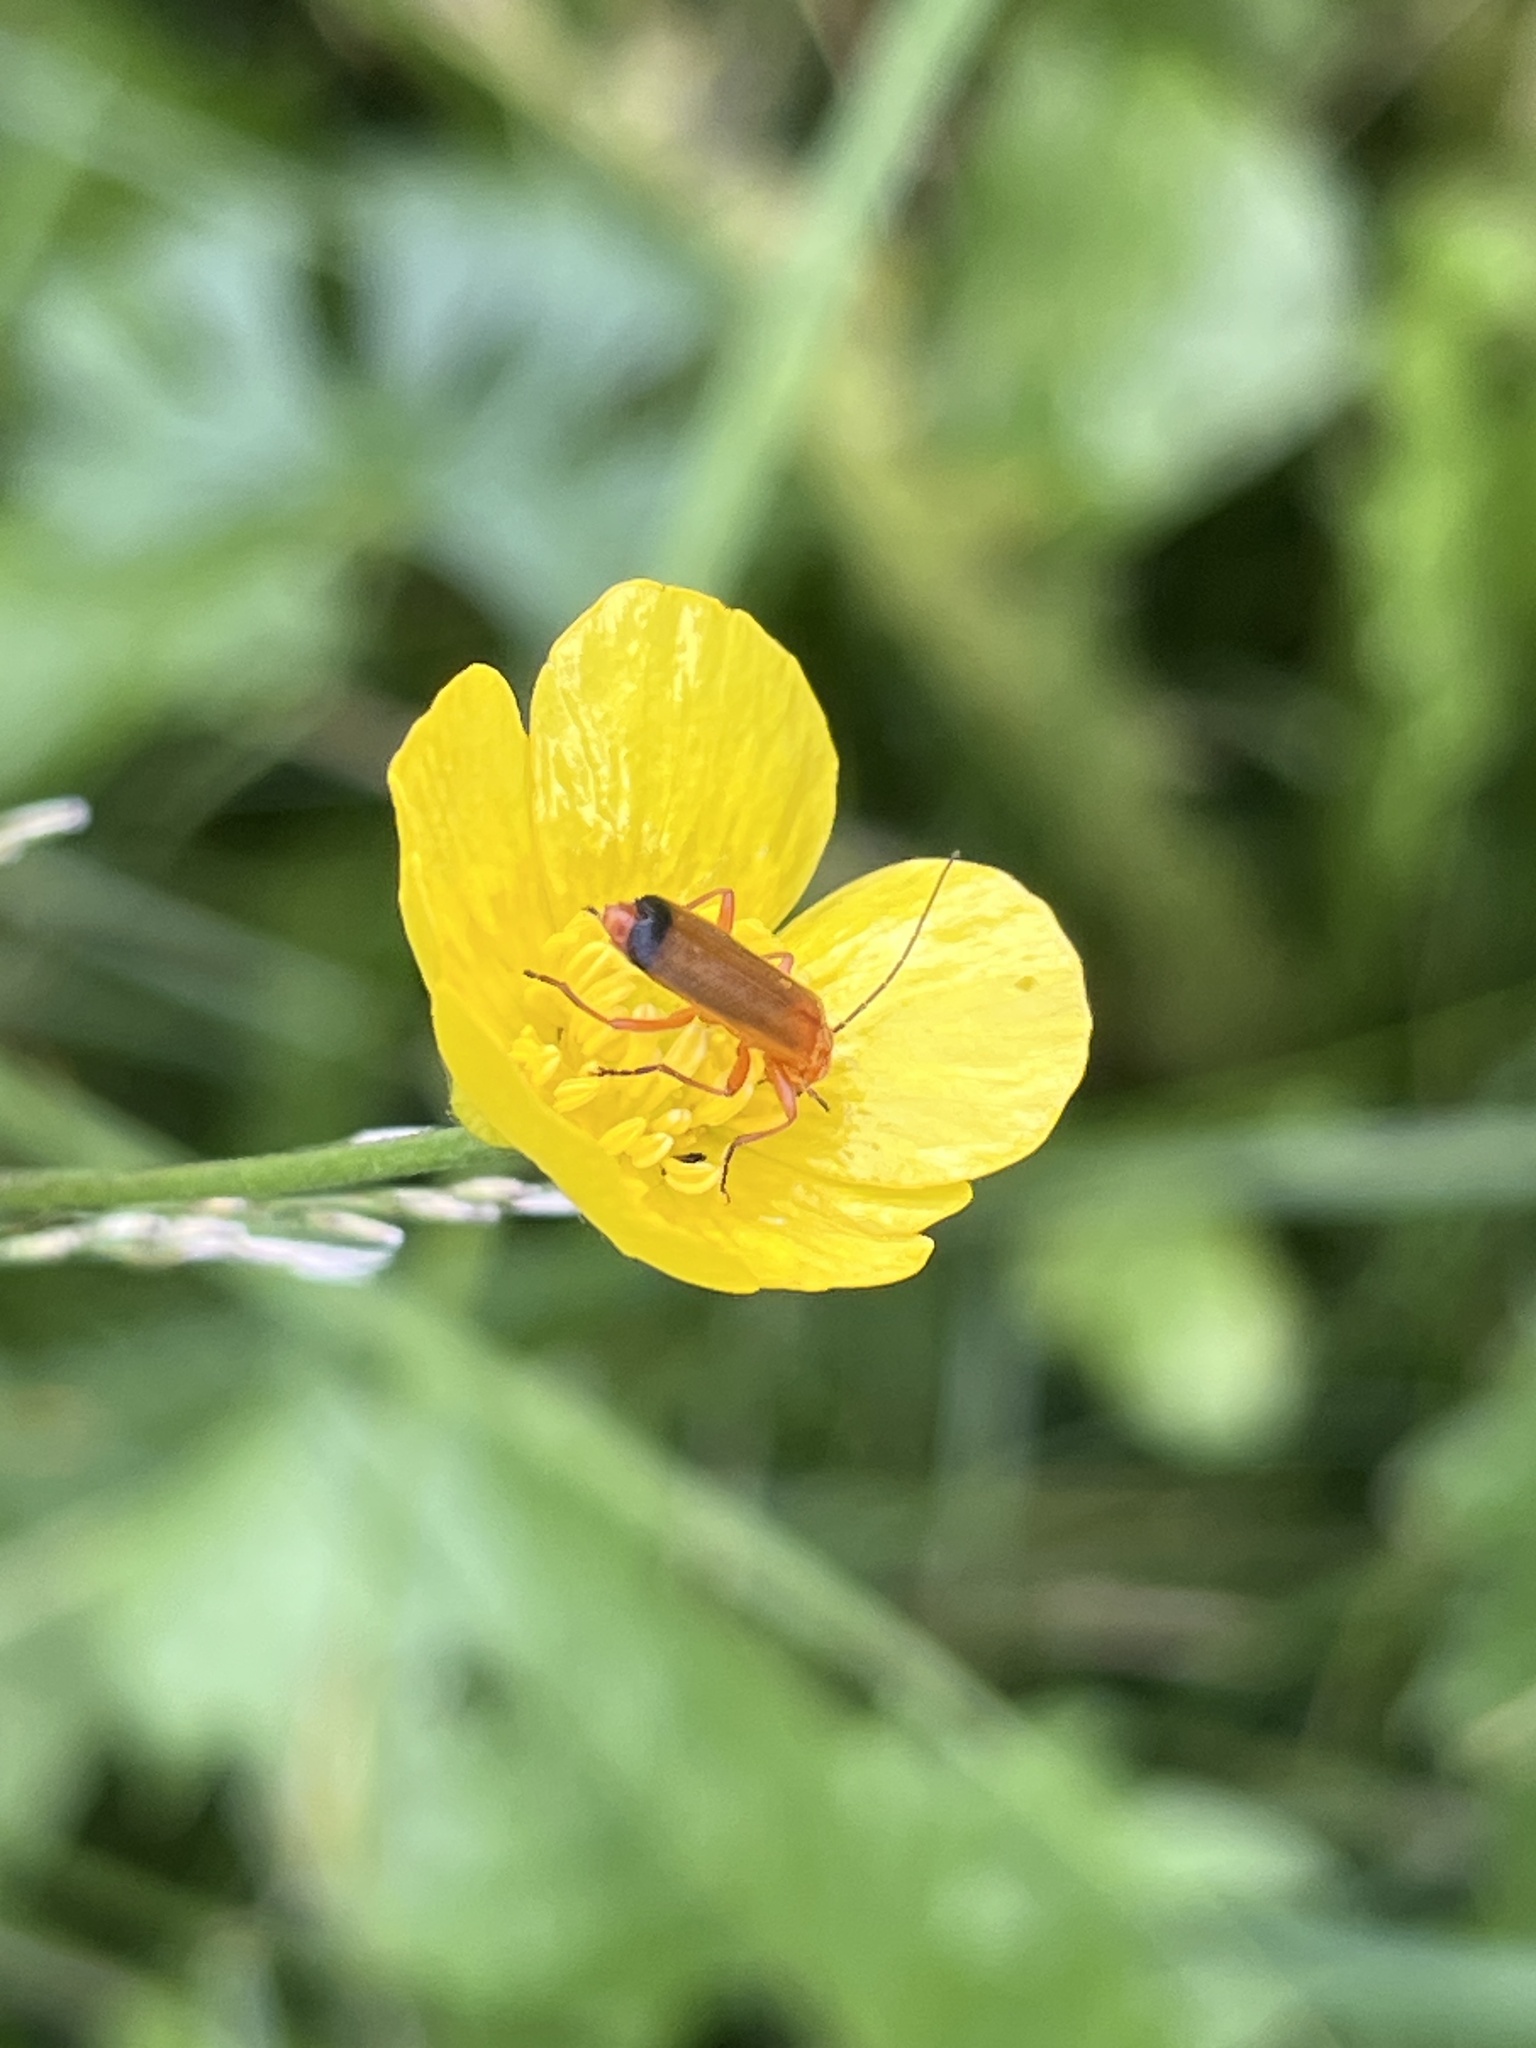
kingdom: Animalia
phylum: Arthropoda
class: Insecta
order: Coleoptera
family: Cantharidae
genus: Rhagonycha
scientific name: Rhagonycha fulva
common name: Common red soldier beetle
